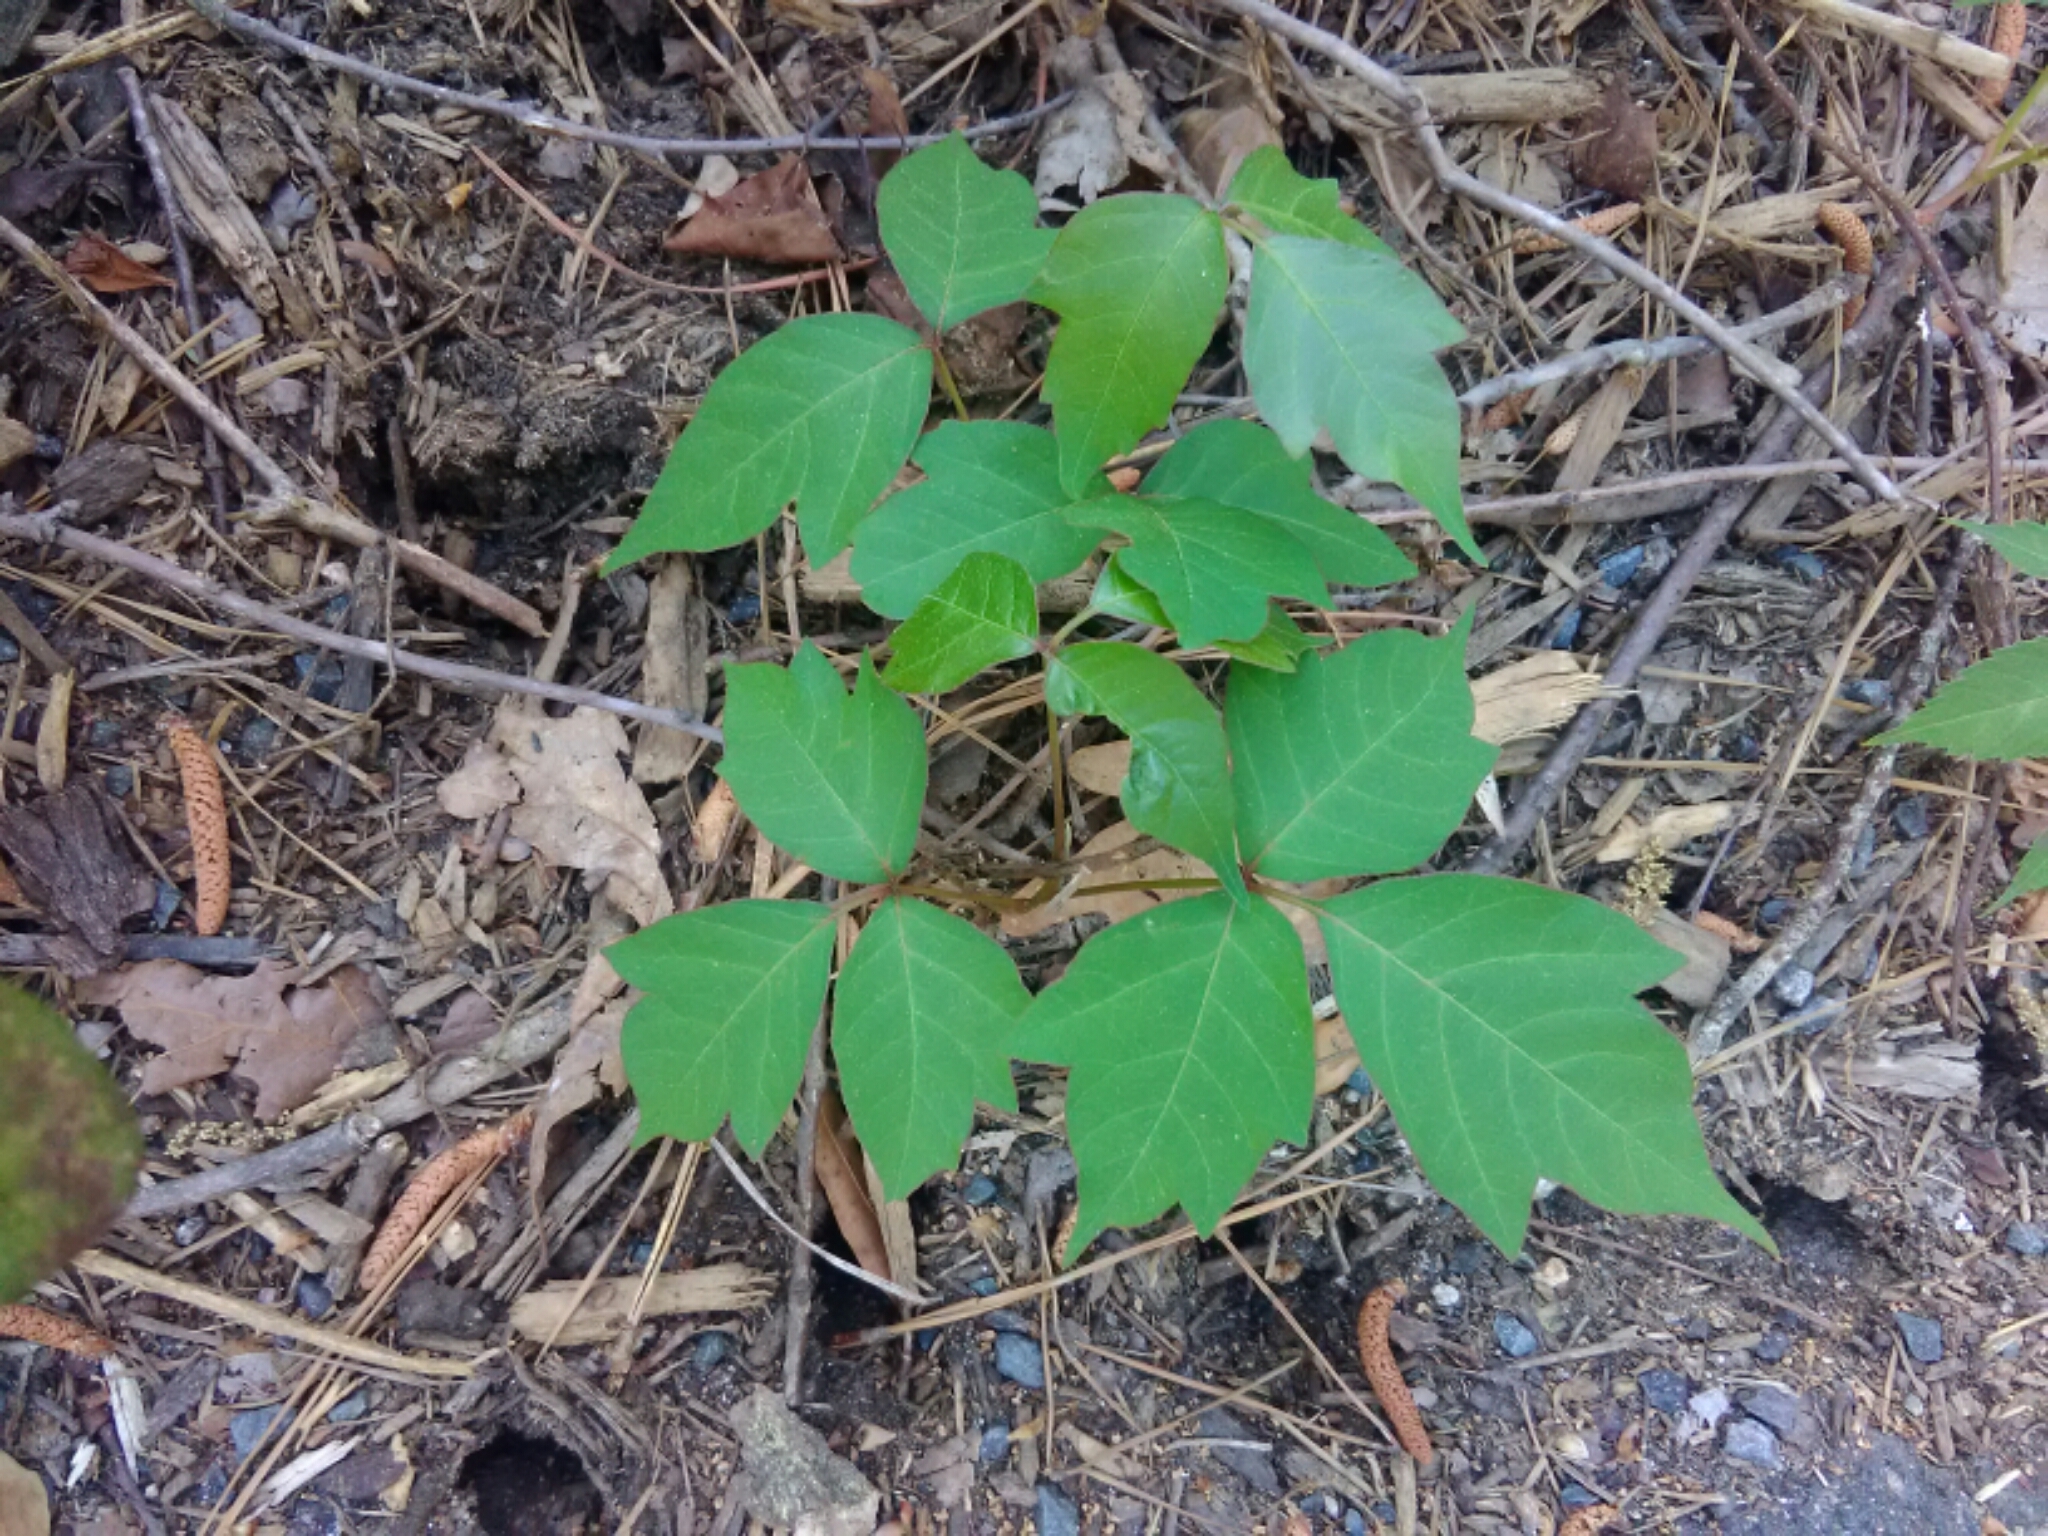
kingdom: Plantae
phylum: Tracheophyta
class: Magnoliopsida
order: Sapindales
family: Anacardiaceae
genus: Toxicodendron
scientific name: Toxicodendron radicans
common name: Poison ivy
